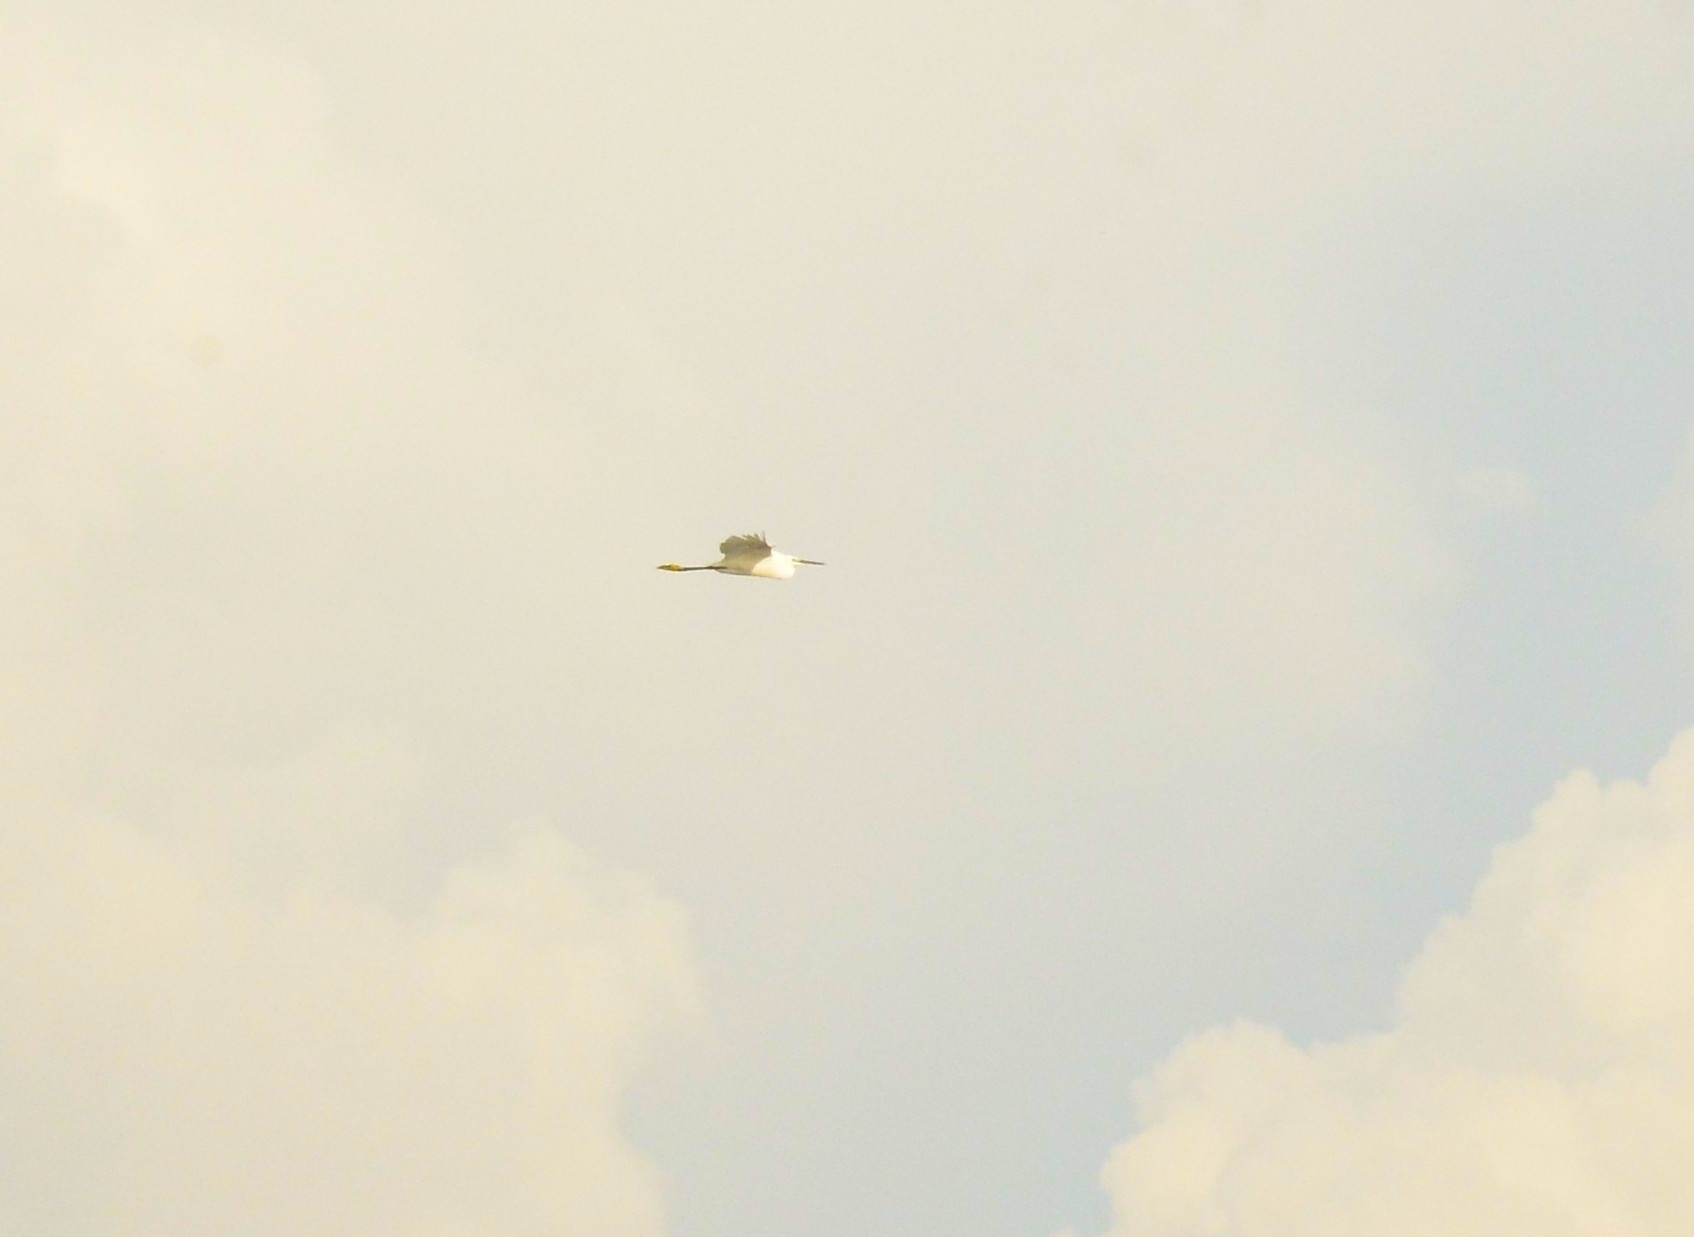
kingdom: Animalia
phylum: Chordata
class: Aves
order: Pelecaniformes
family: Ardeidae
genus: Egretta
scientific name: Egretta garzetta
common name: Little egret
